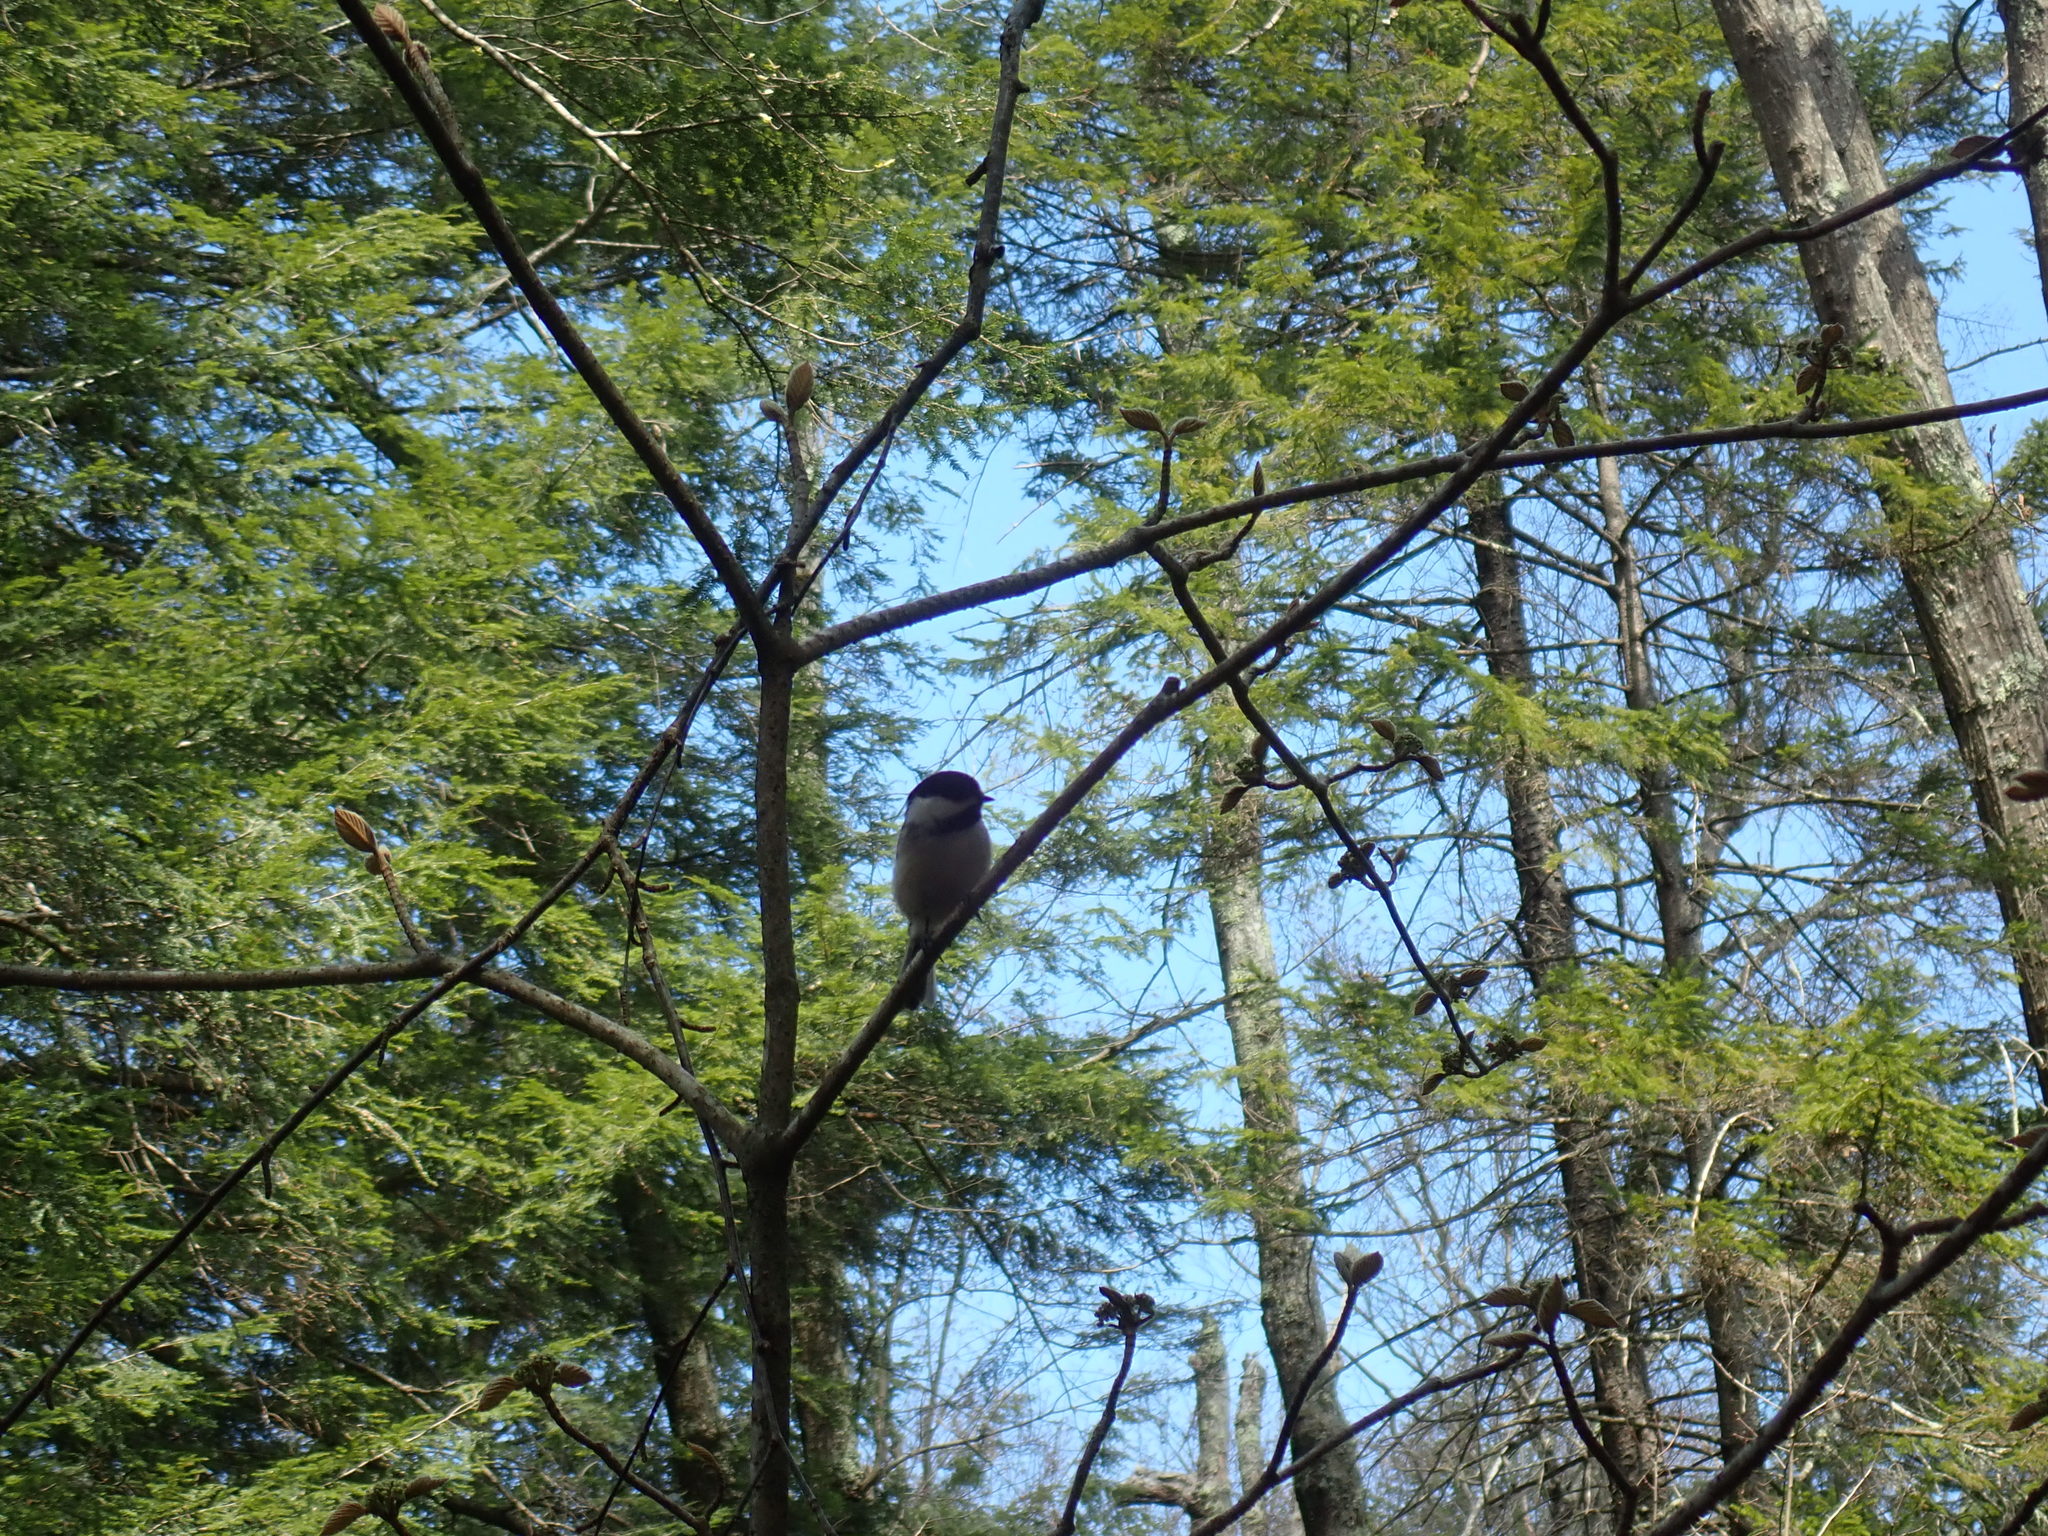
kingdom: Animalia
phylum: Chordata
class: Aves
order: Passeriformes
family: Paridae
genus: Poecile
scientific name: Poecile atricapillus
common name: Black-capped chickadee
